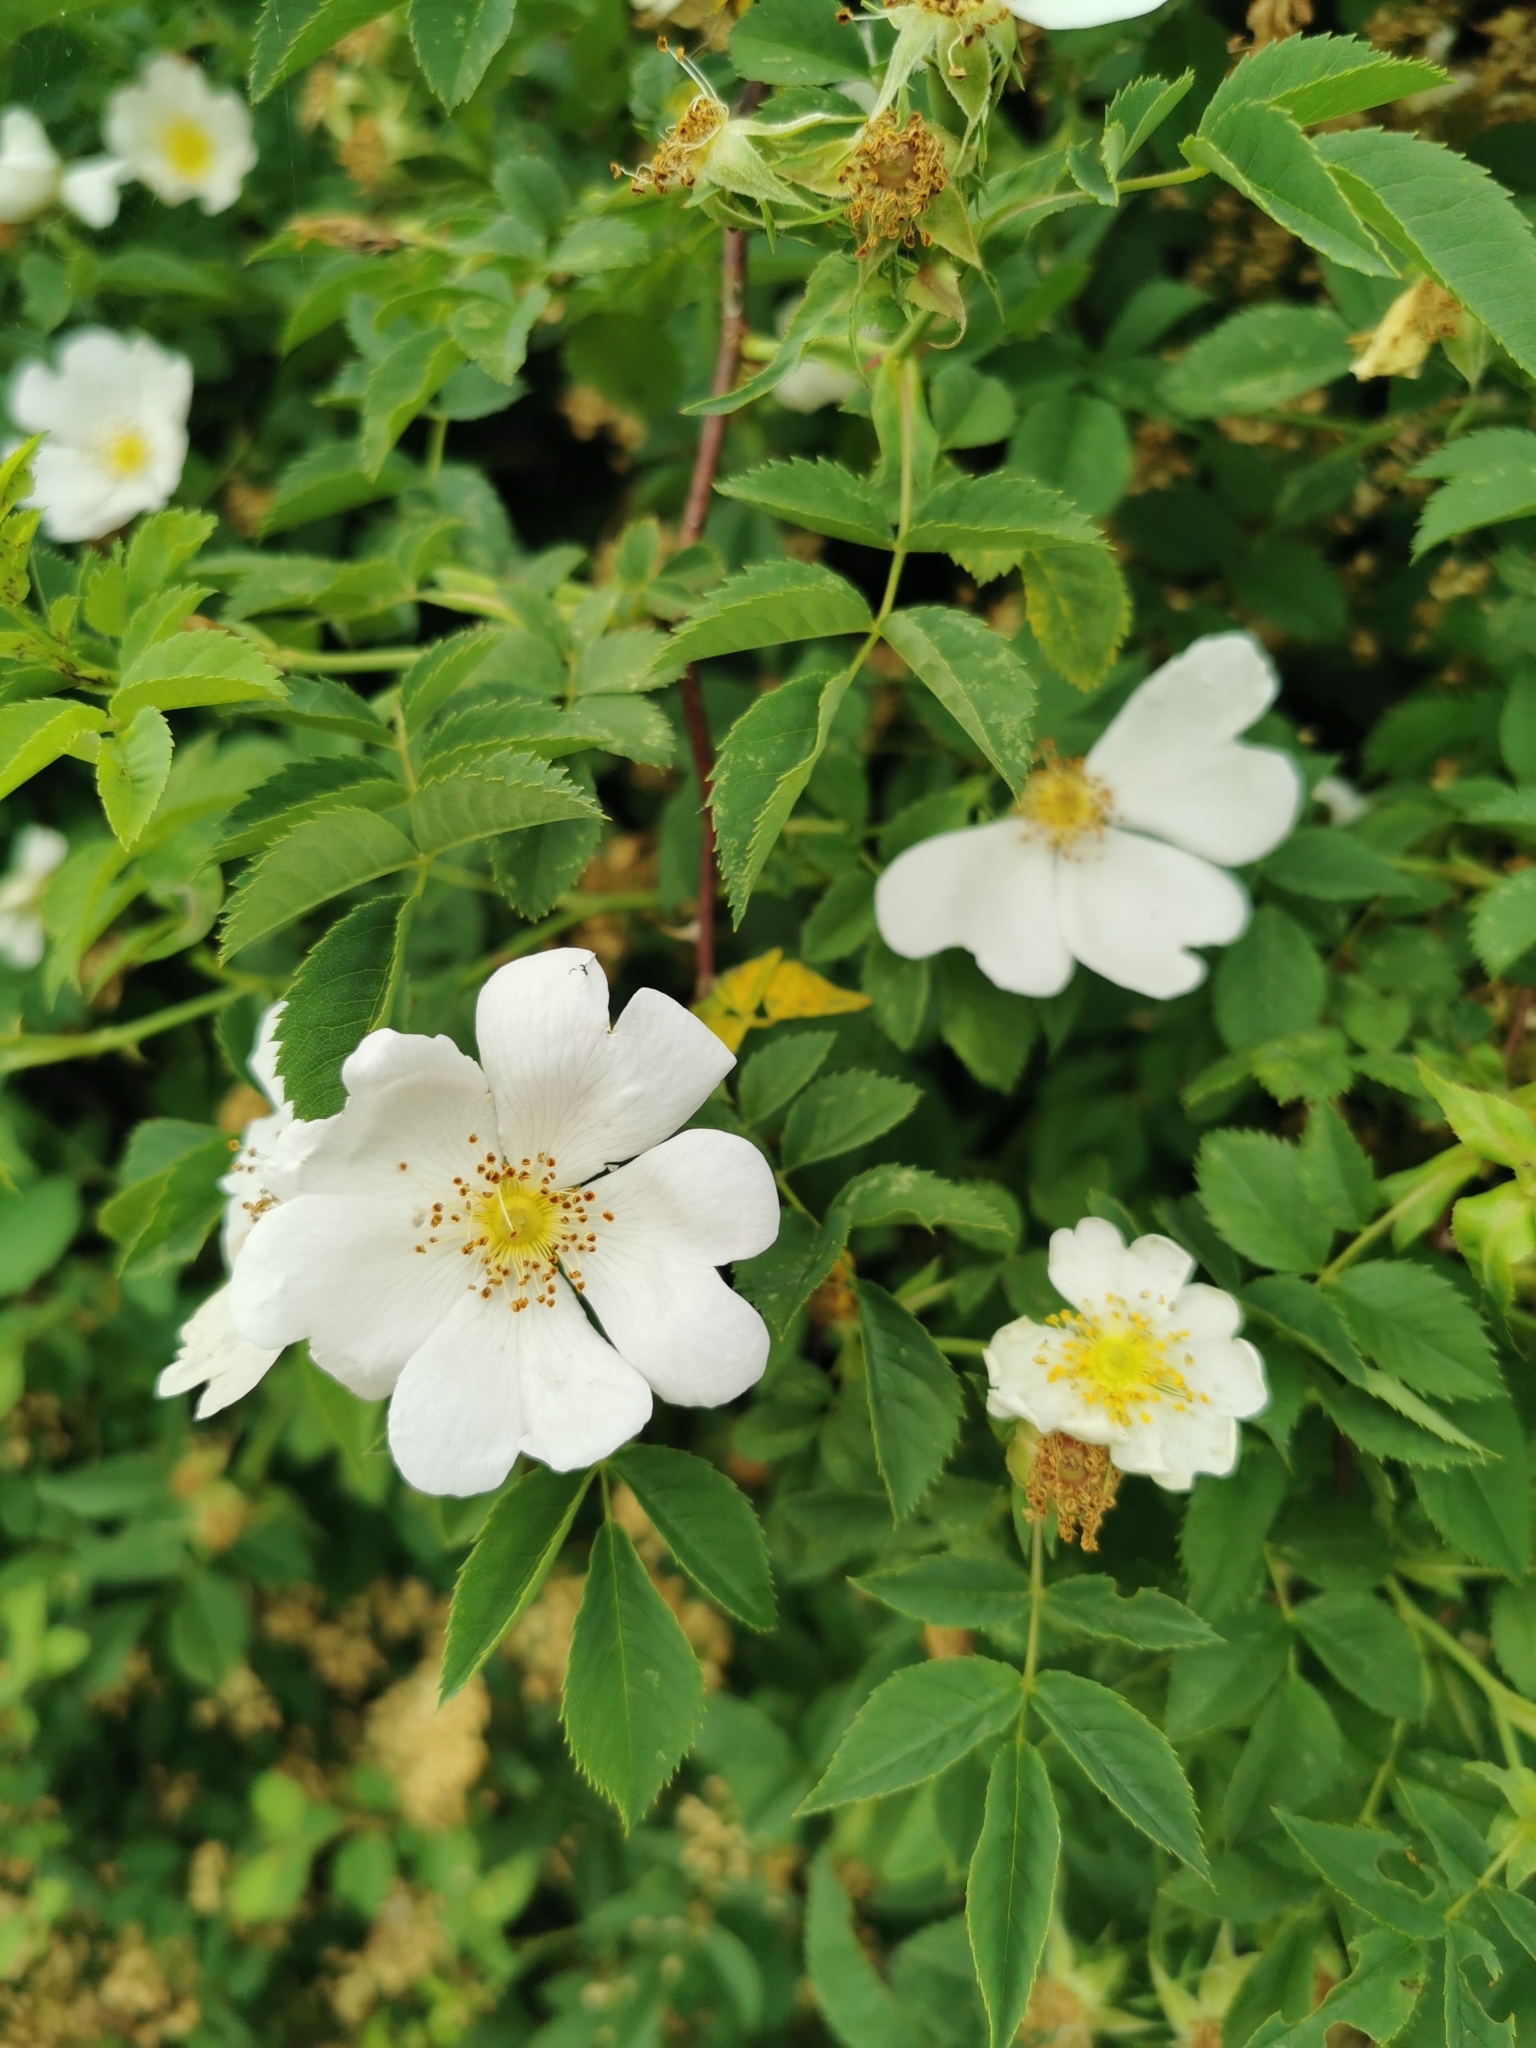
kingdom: Plantae
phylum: Tracheophyta
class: Magnoliopsida
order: Rosales
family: Rosaceae
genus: Rosa
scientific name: Rosa canina
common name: Dog rose
